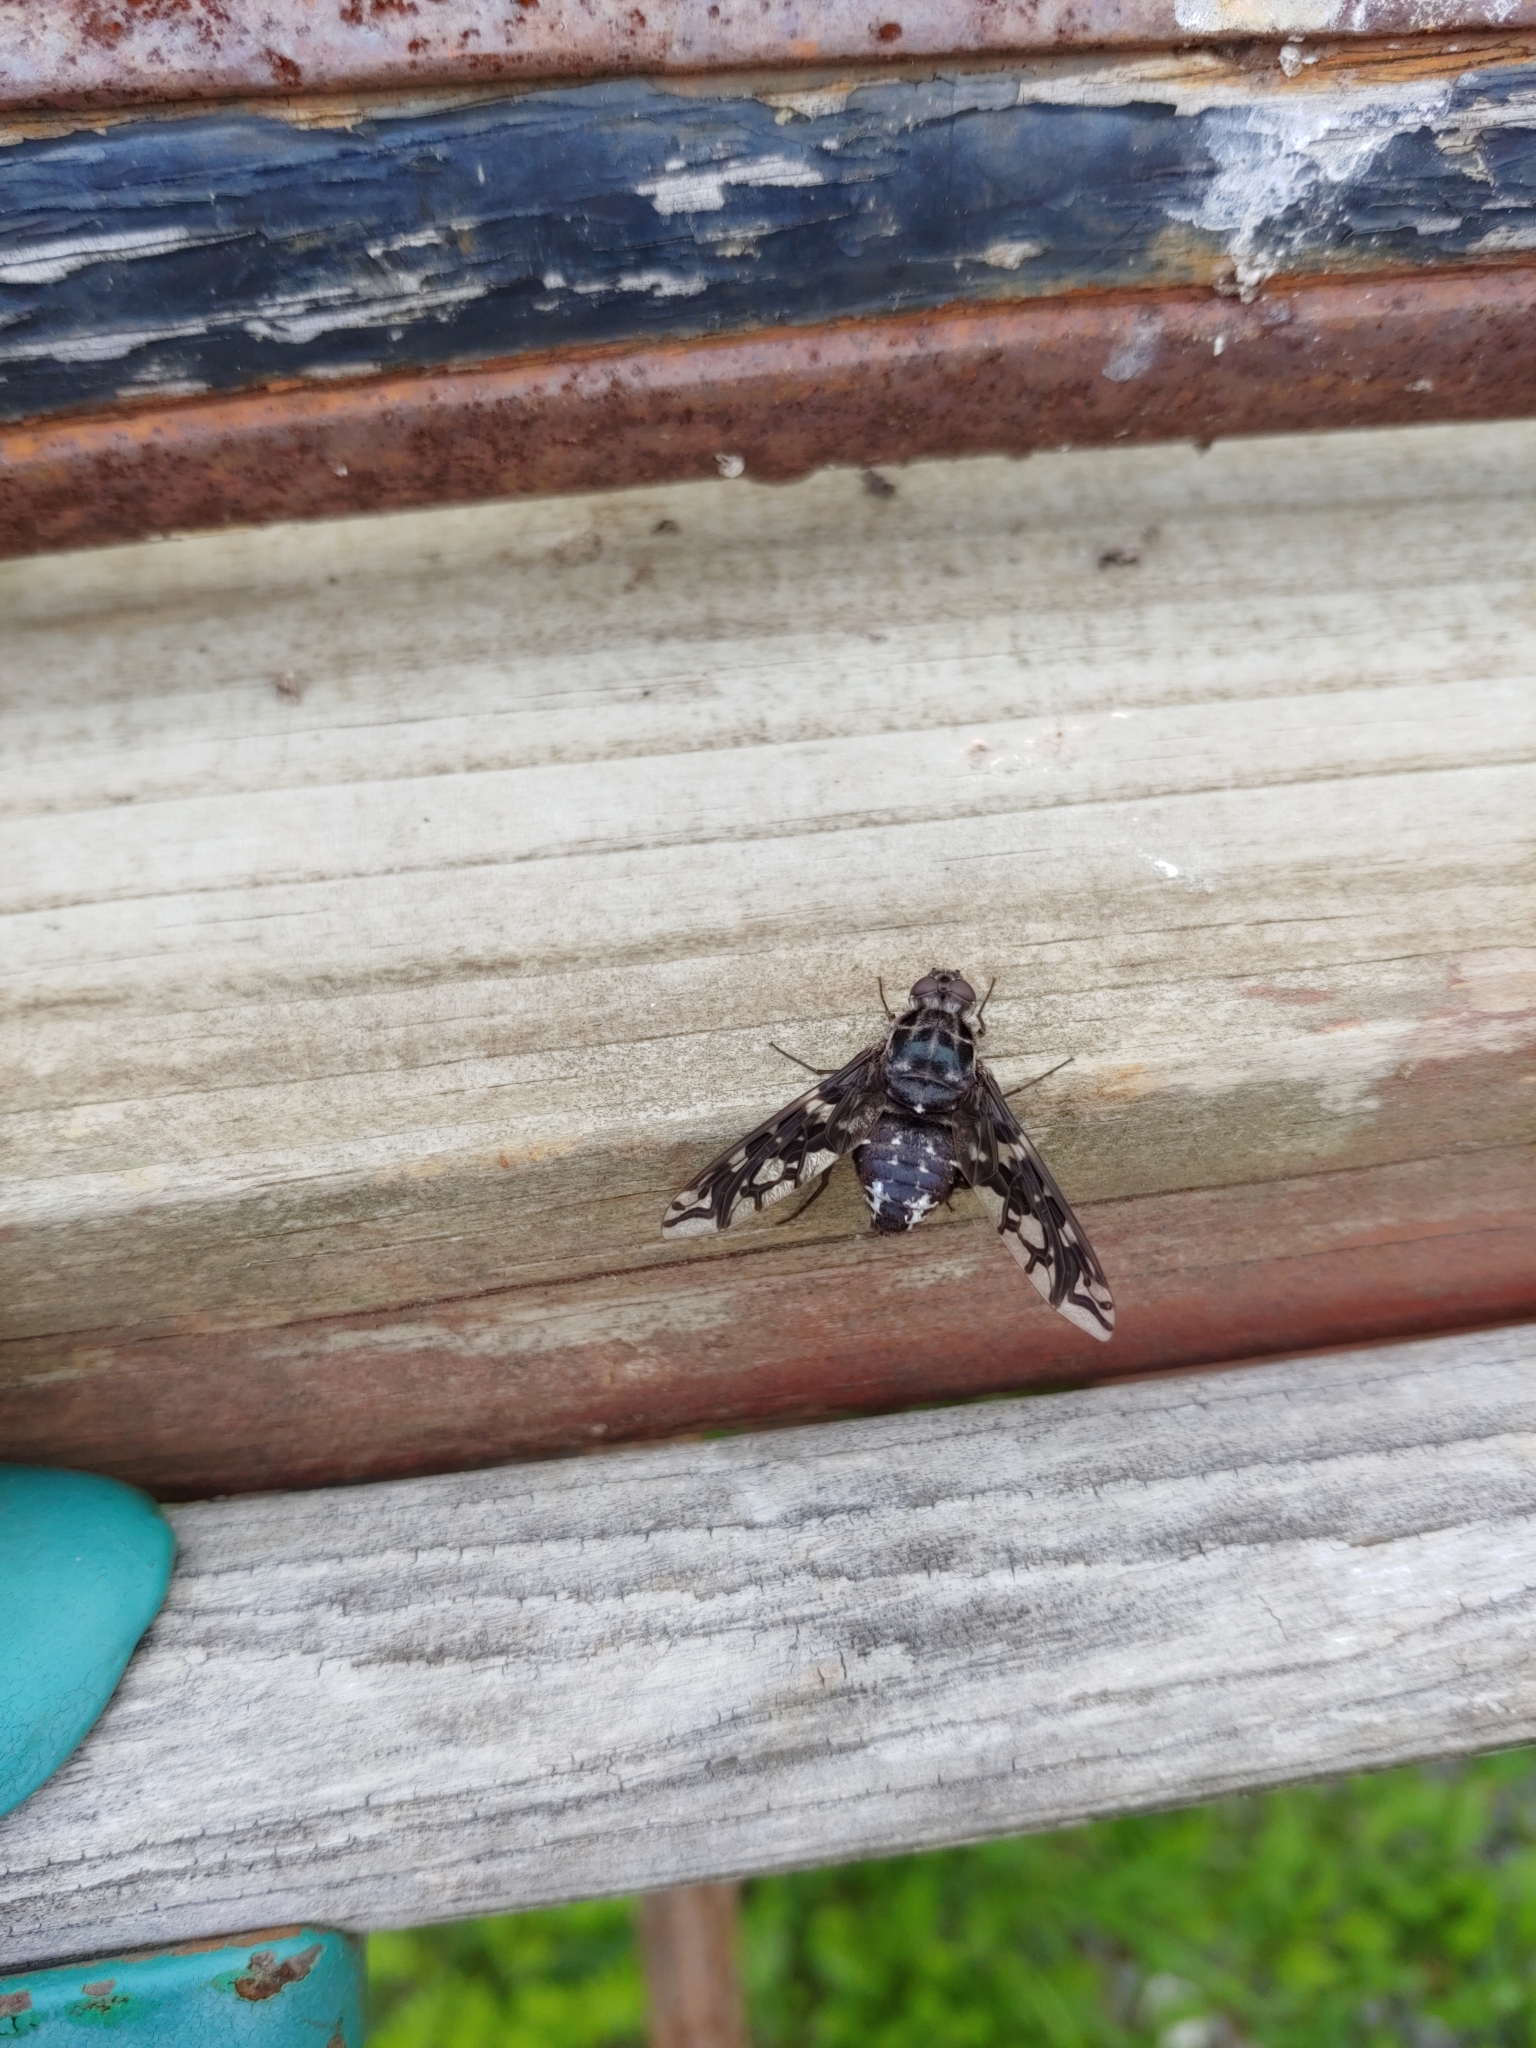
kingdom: Animalia
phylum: Arthropoda
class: Insecta
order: Diptera
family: Bombyliidae
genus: Xenox
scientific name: Xenox tigrinus
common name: Tiger bee fly
